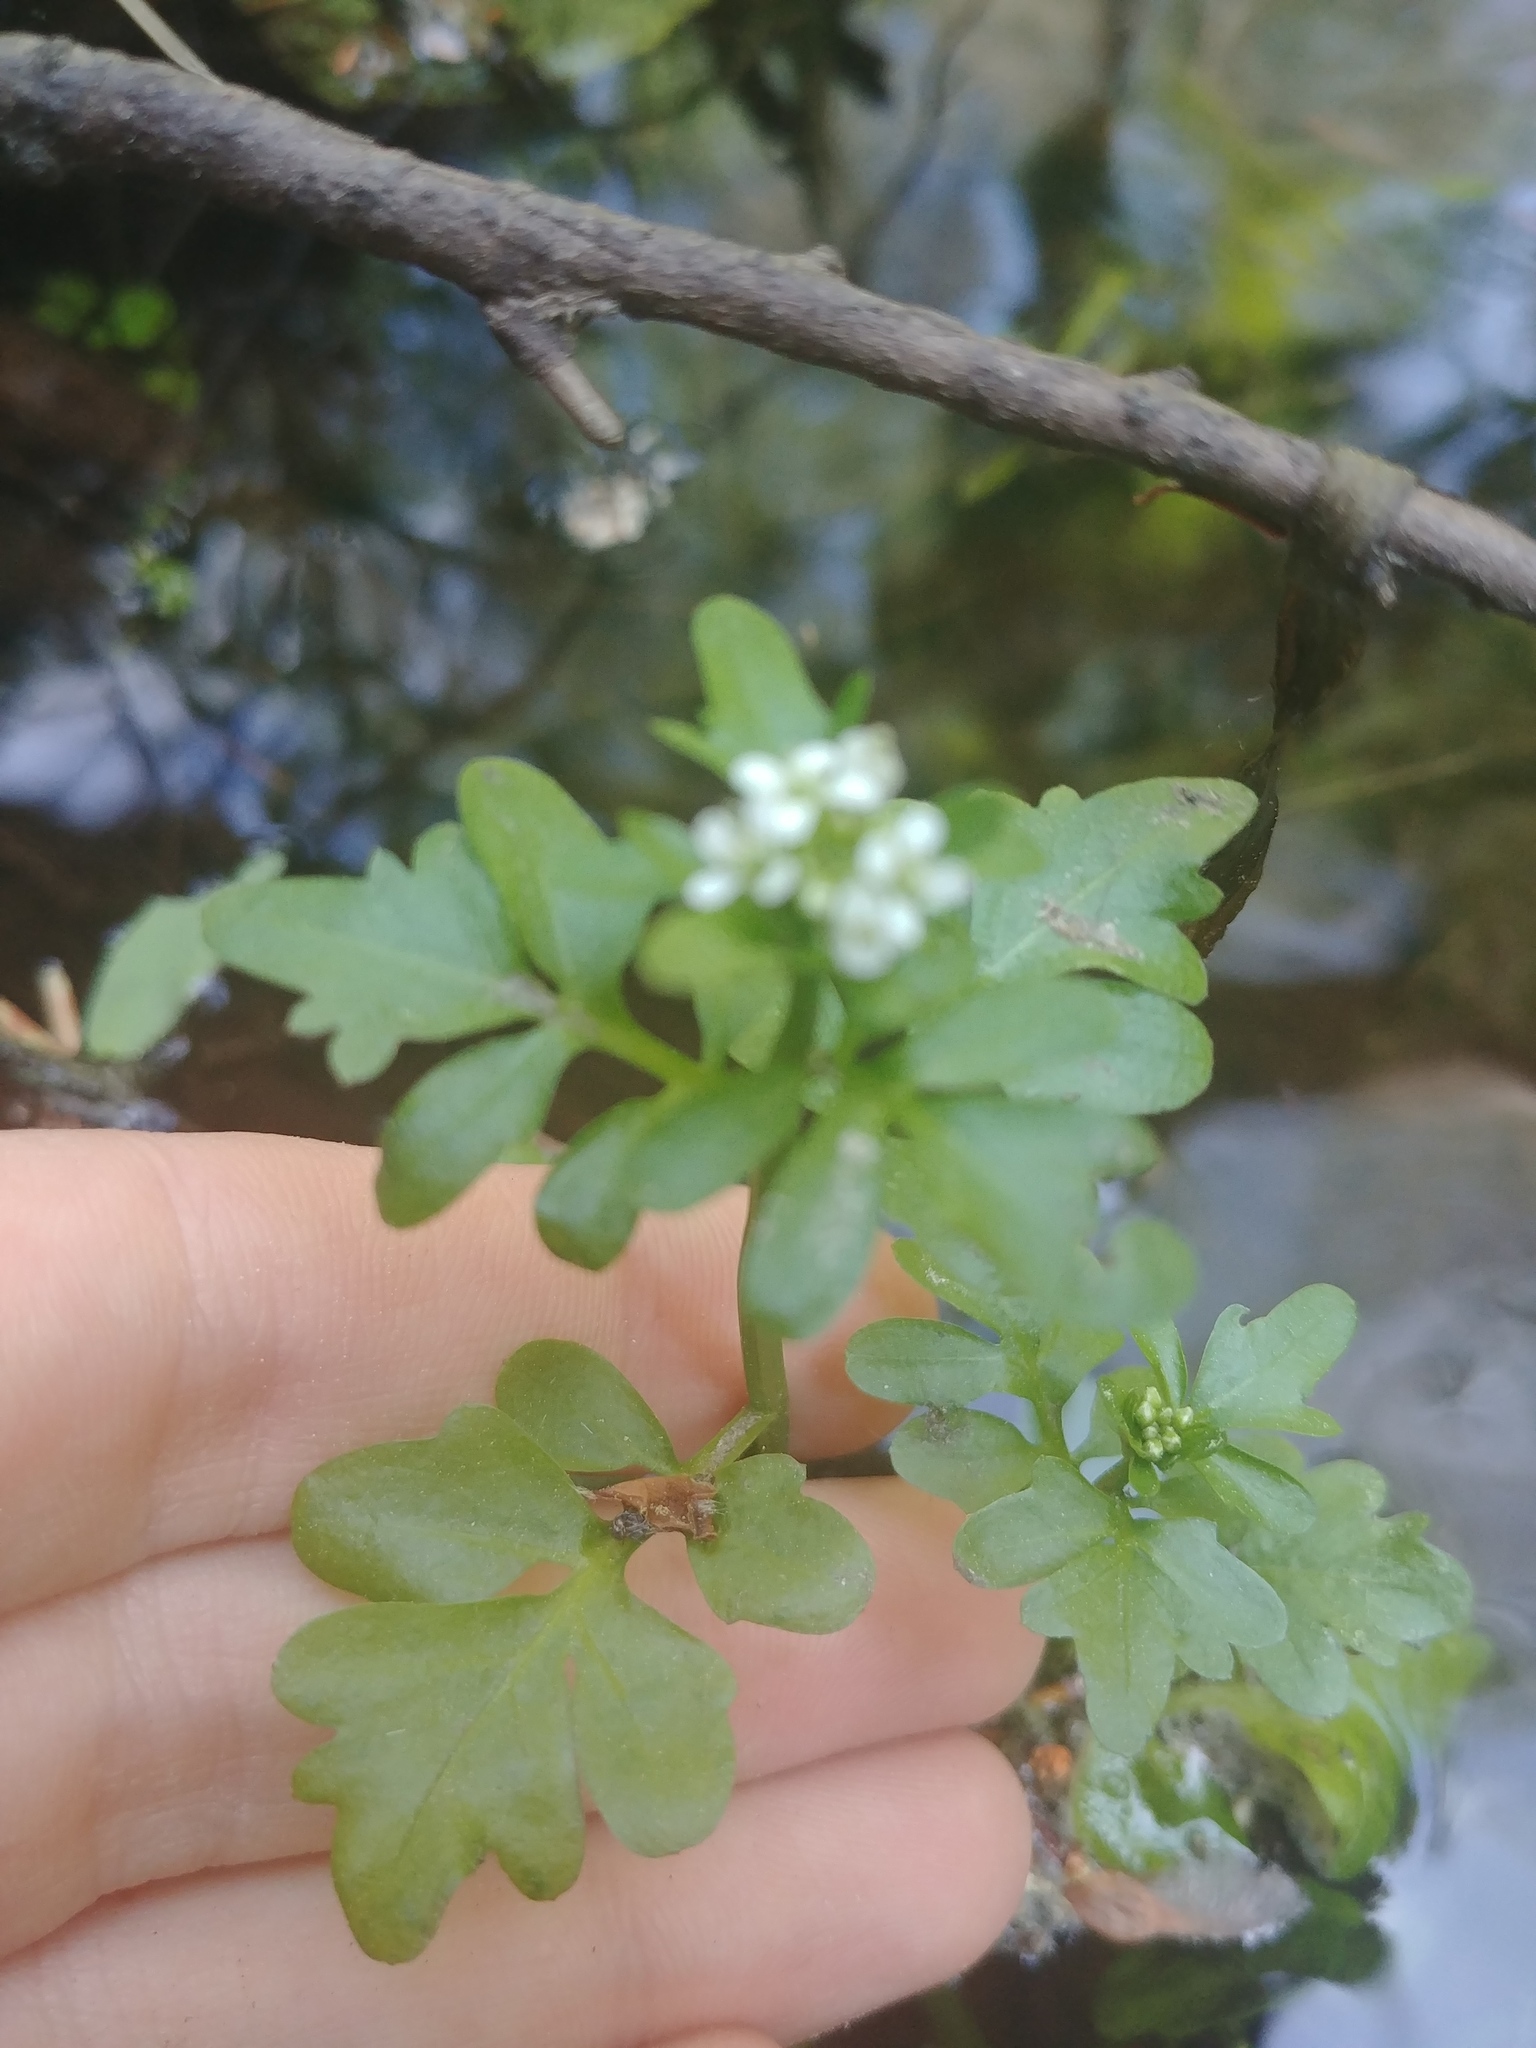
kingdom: Plantae
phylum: Tracheophyta
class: Magnoliopsida
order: Brassicales
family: Brassicaceae
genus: Cardamine
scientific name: Cardamine pensylvanica
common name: Pennsylvania bittercress
